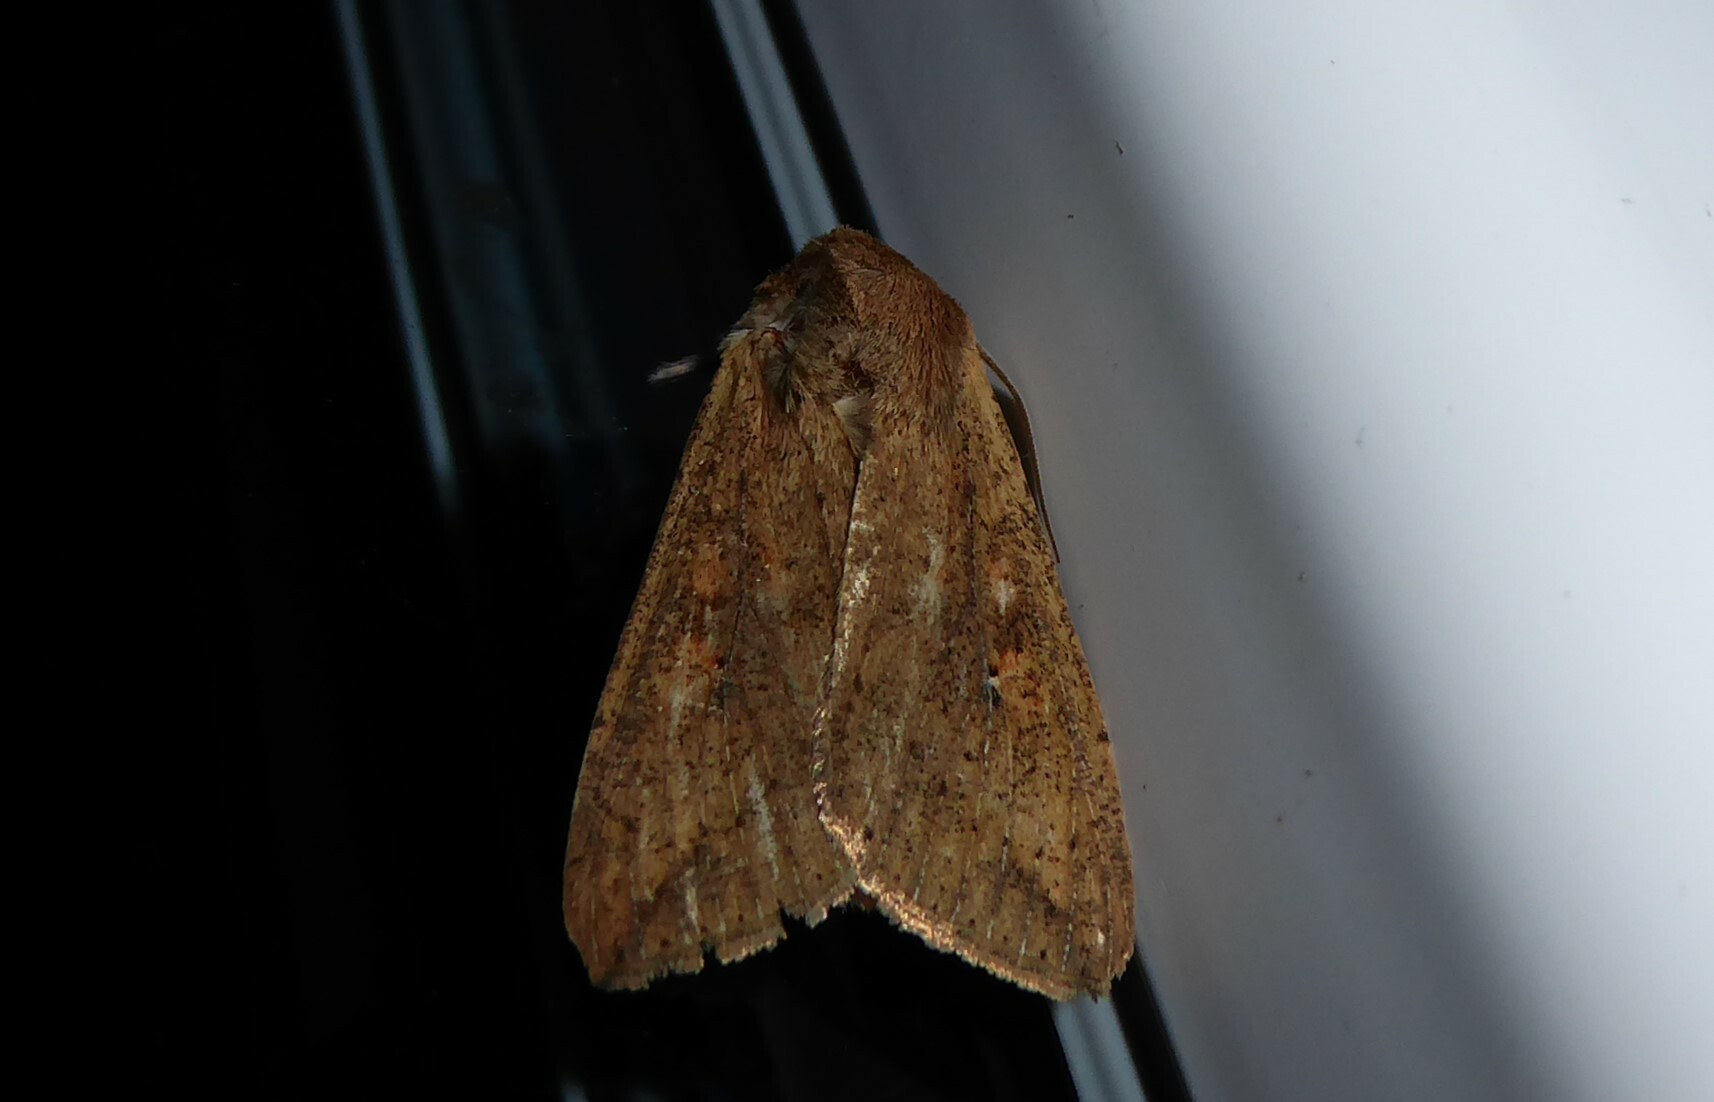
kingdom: Animalia
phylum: Arthropoda
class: Insecta
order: Lepidoptera
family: Noctuidae
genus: Mythimna
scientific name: Mythimna separata
